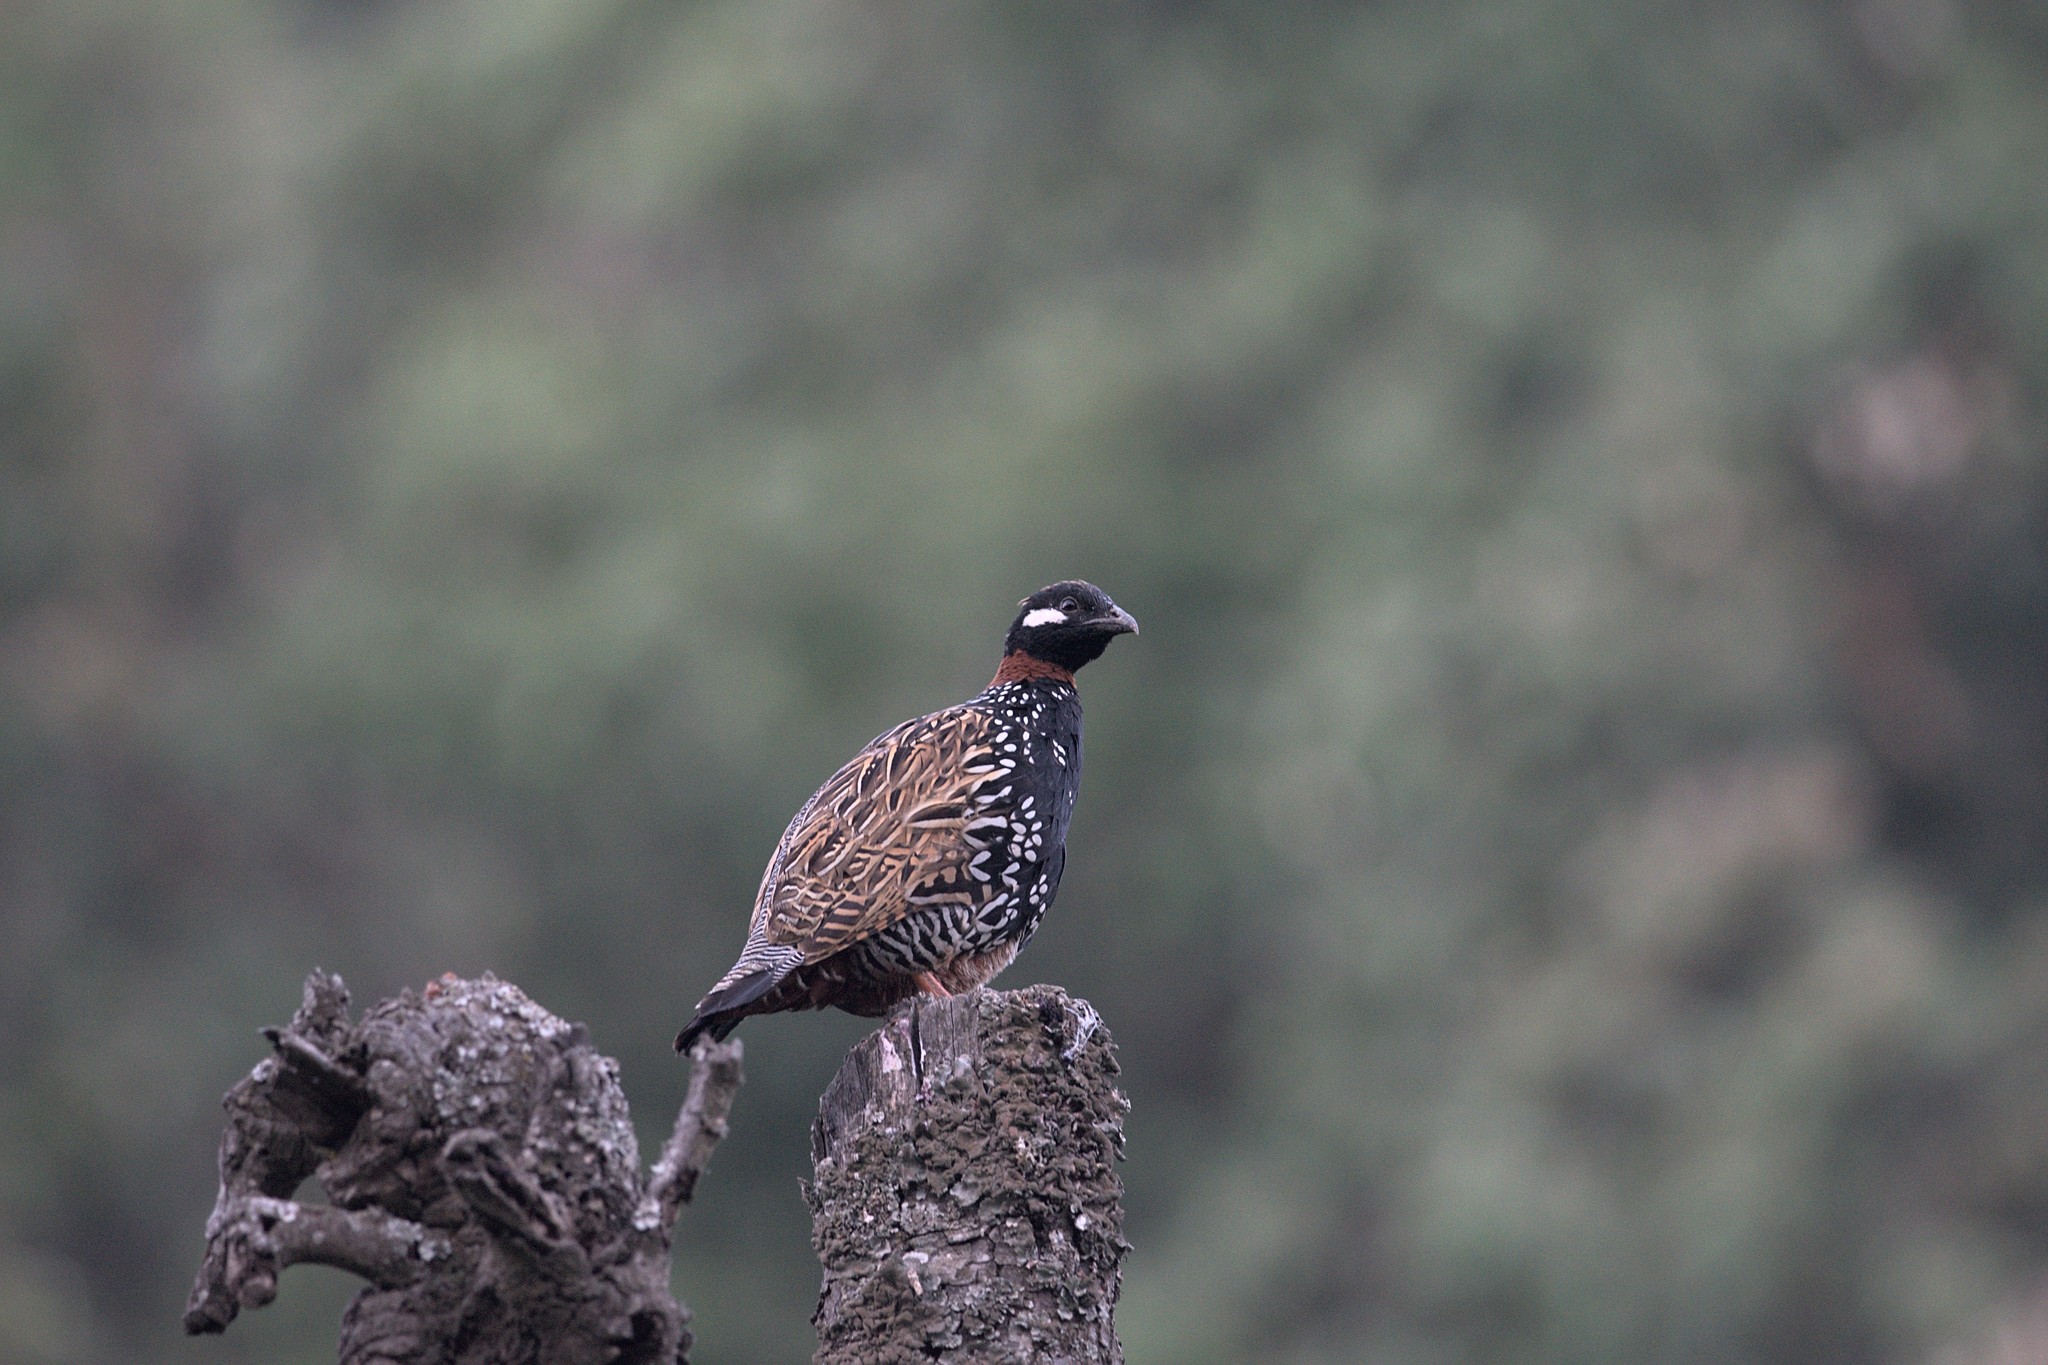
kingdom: Animalia
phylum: Chordata
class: Aves
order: Galliformes
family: Phasianidae
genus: Francolinus
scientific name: Francolinus francolinus
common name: Black francolin
